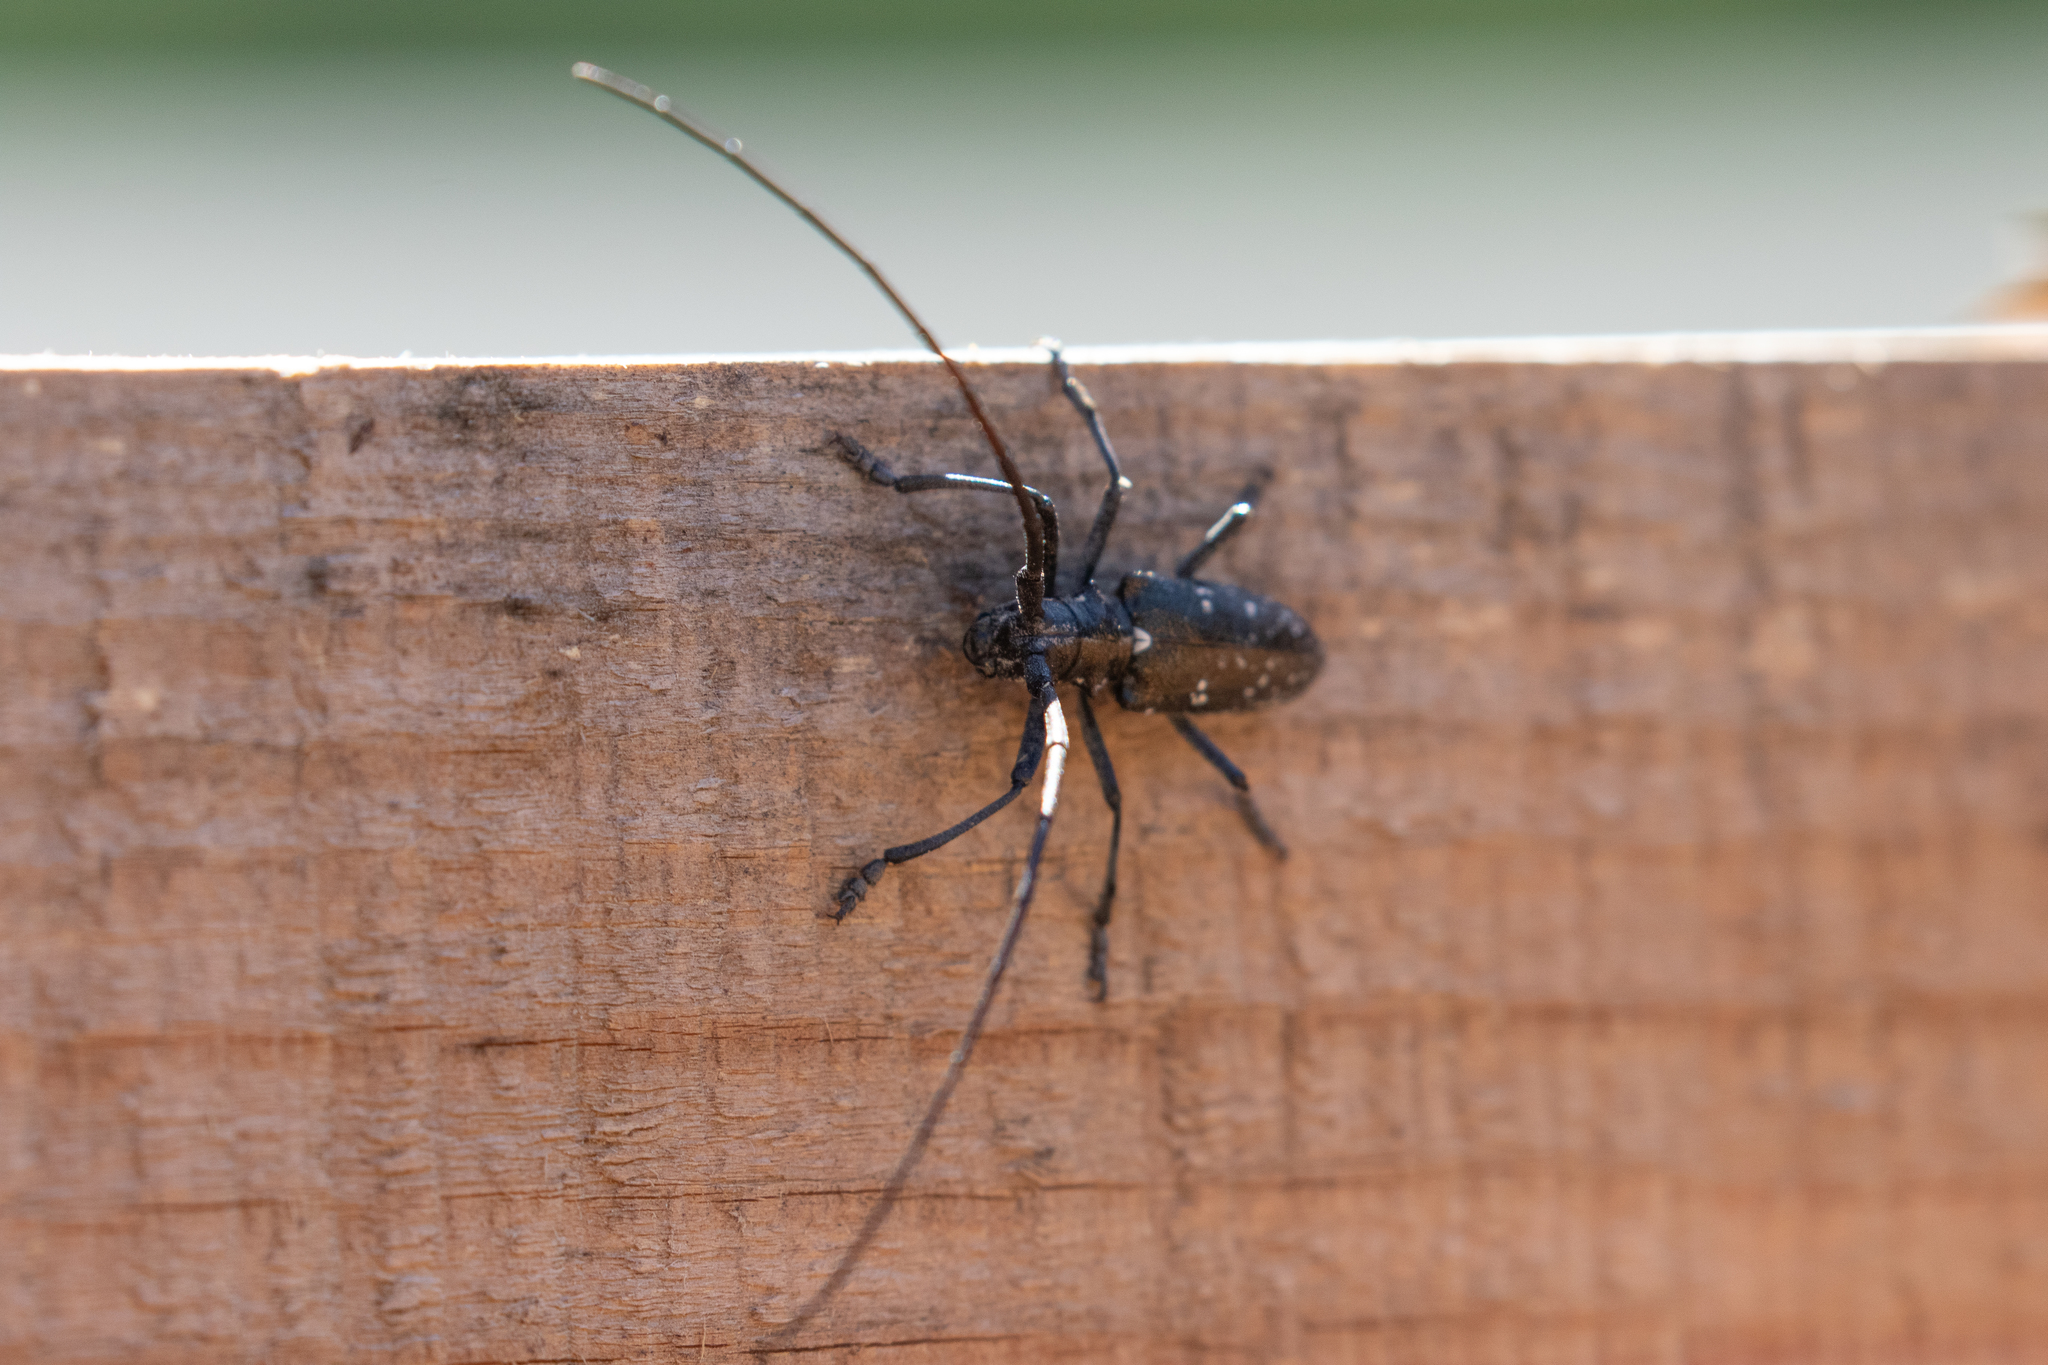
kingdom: Animalia
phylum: Arthropoda
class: Insecta
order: Coleoptera
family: Cerambycidae
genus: Monochamus
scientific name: Monochamus scutellatus
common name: White-spotted sawyer beetle
